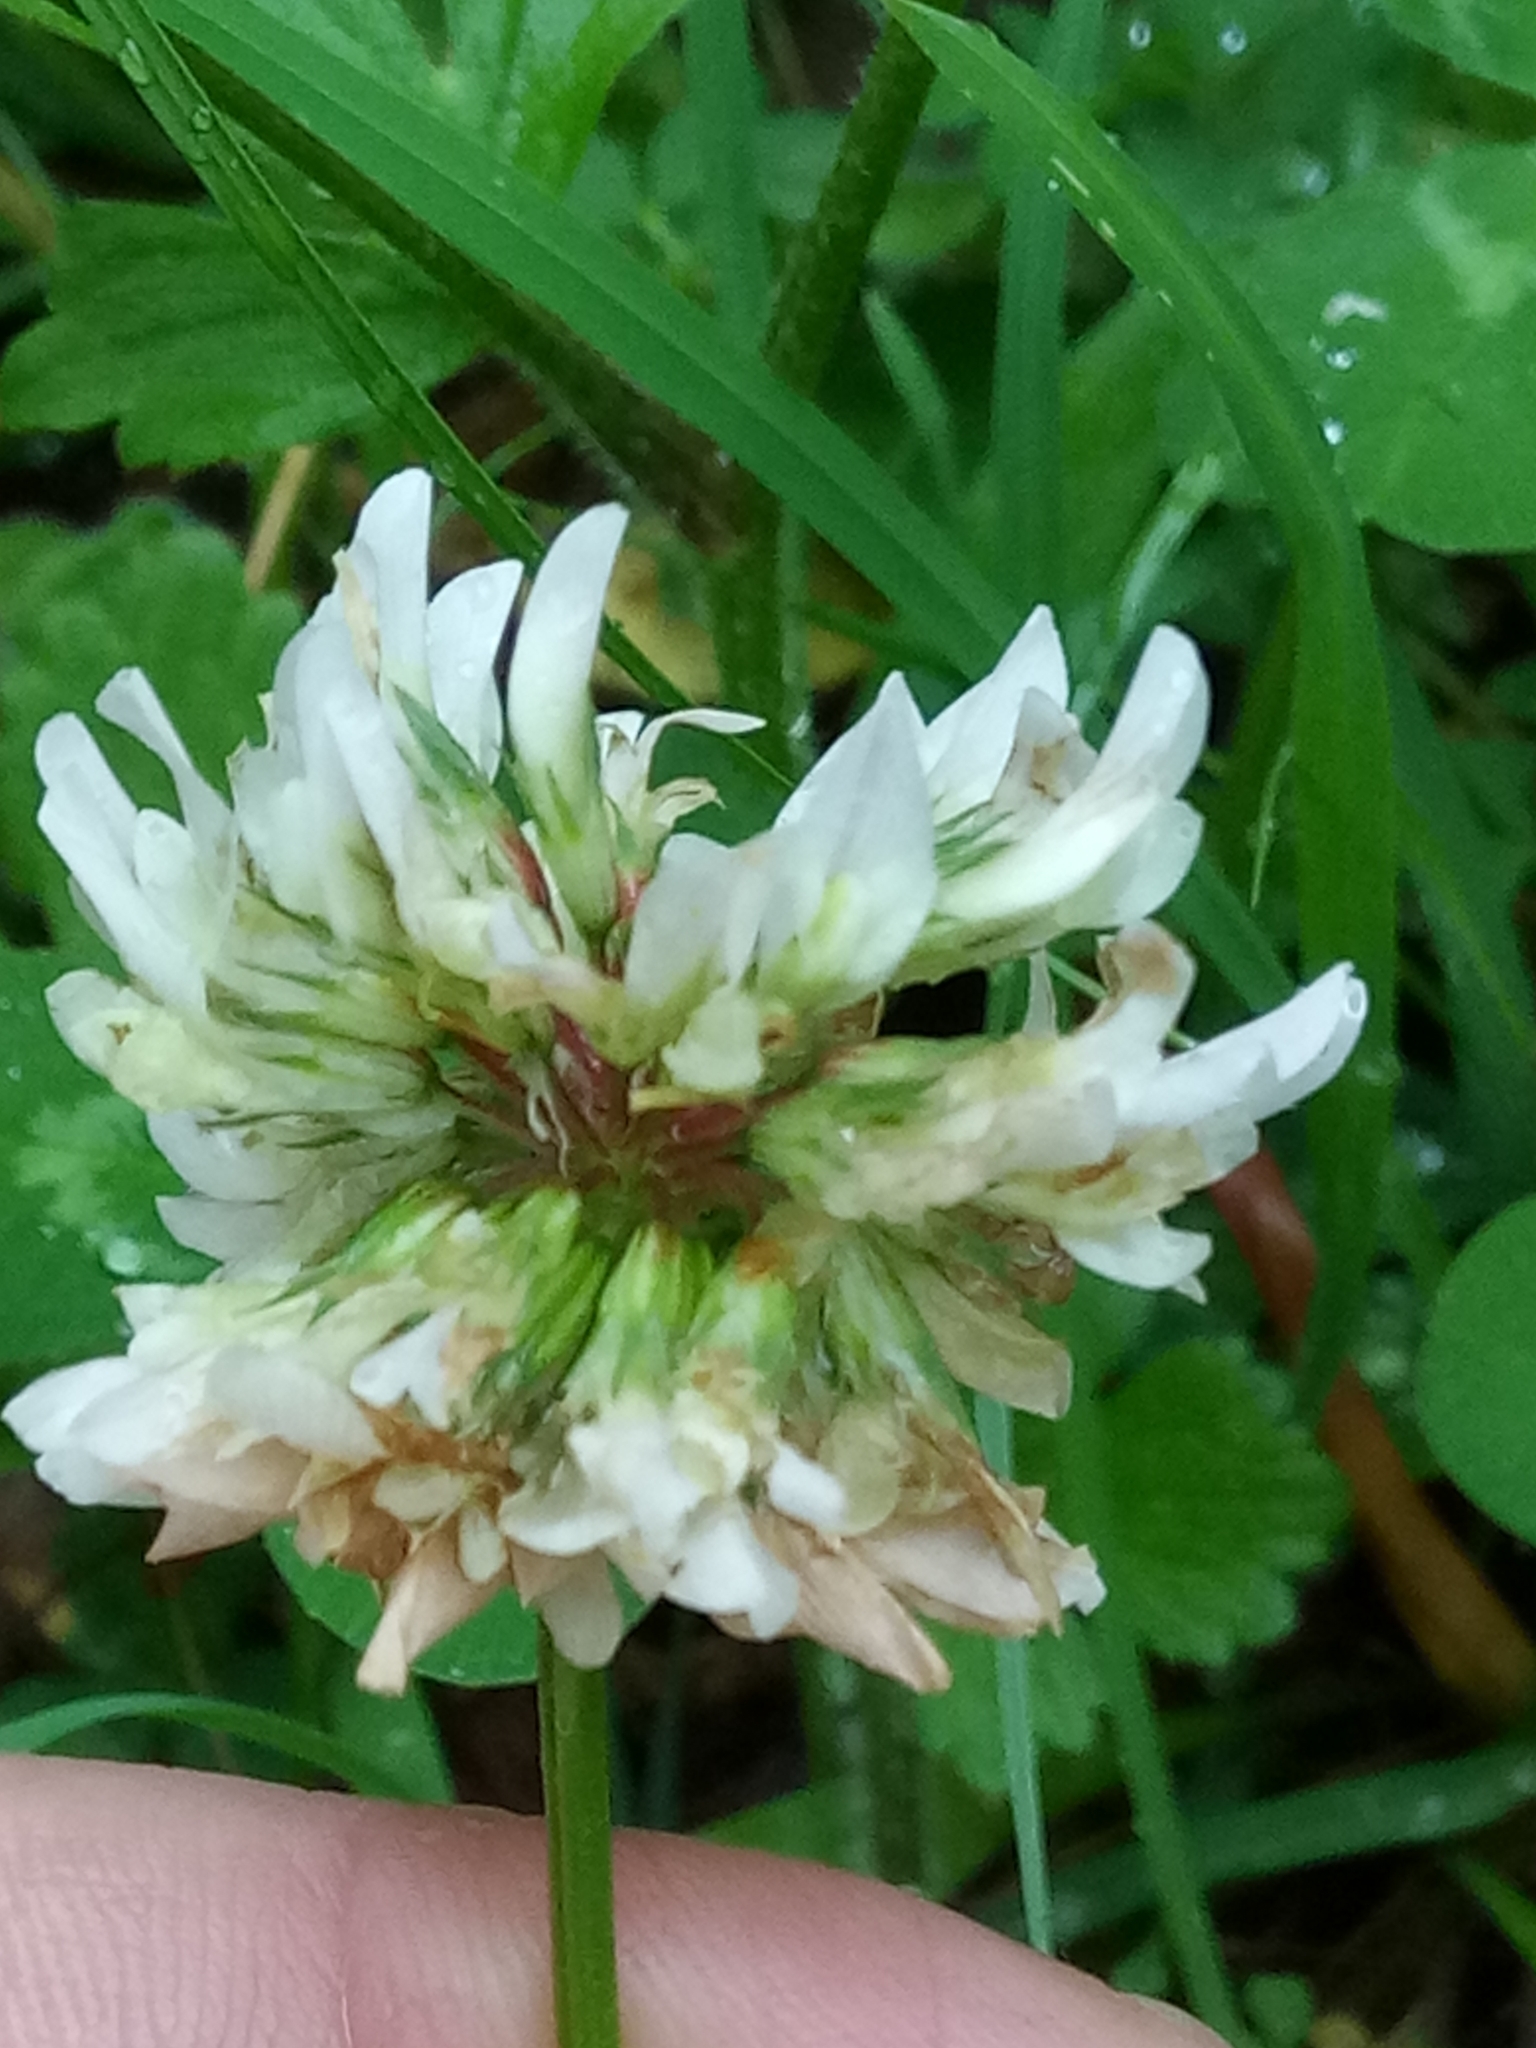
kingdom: Plantae
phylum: Tracheophyta
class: Magnoliopsida
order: Fabales
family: Fabaceae
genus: Trifolium
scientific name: Trifolium repens
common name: White clover
